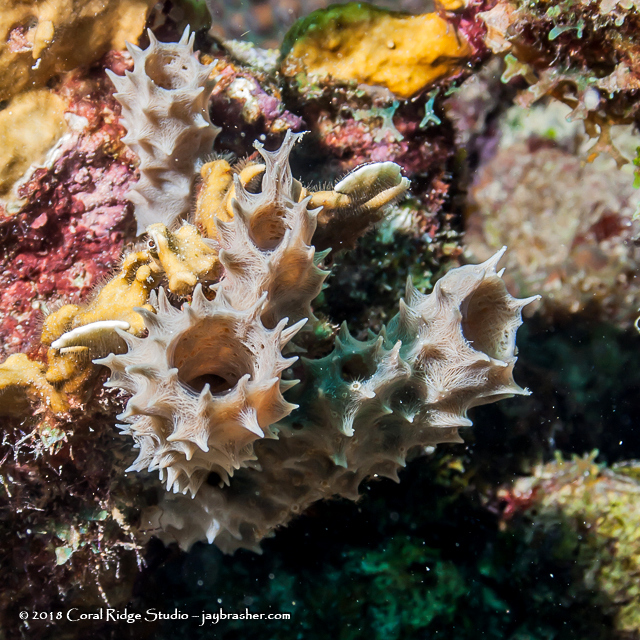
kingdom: Animalia
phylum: Porifera
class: Demospongiae
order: Haplosclerida
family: Callyspongiidae
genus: Callyspongia
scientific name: Callyspongia armigera
